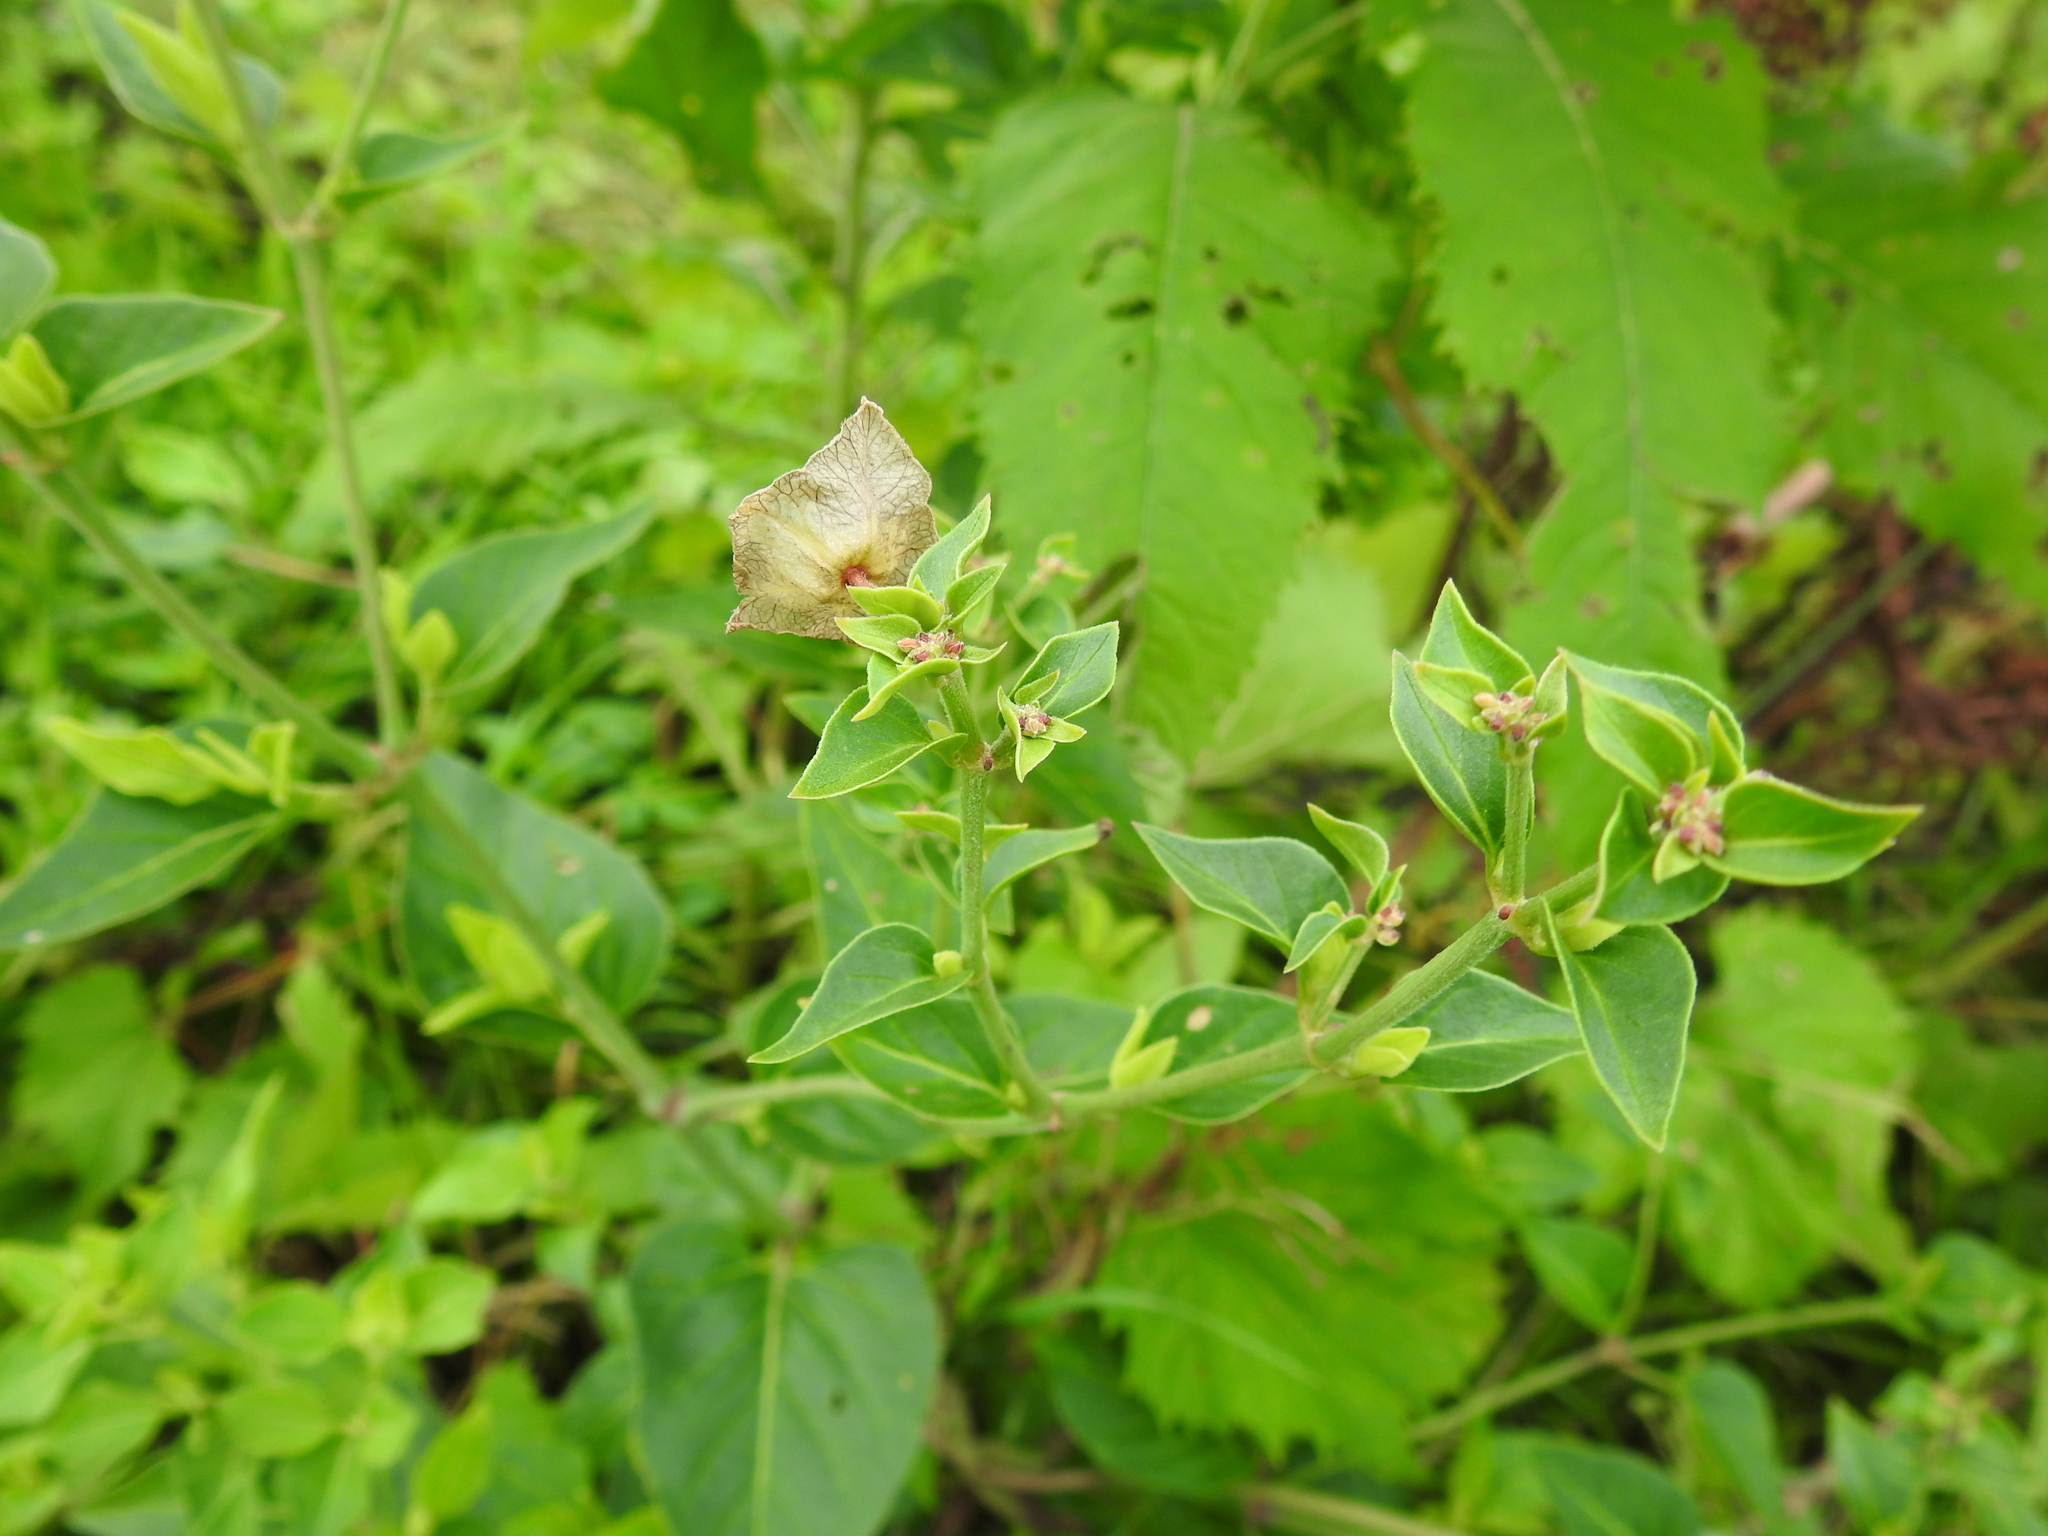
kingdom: Plantae
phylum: Tracheophyta
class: Magnoliopsida
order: Caryophyllales
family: Nyctaginaceae
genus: Mirabilis
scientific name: Mirabilis nyctaginea
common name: Umbrella wort
